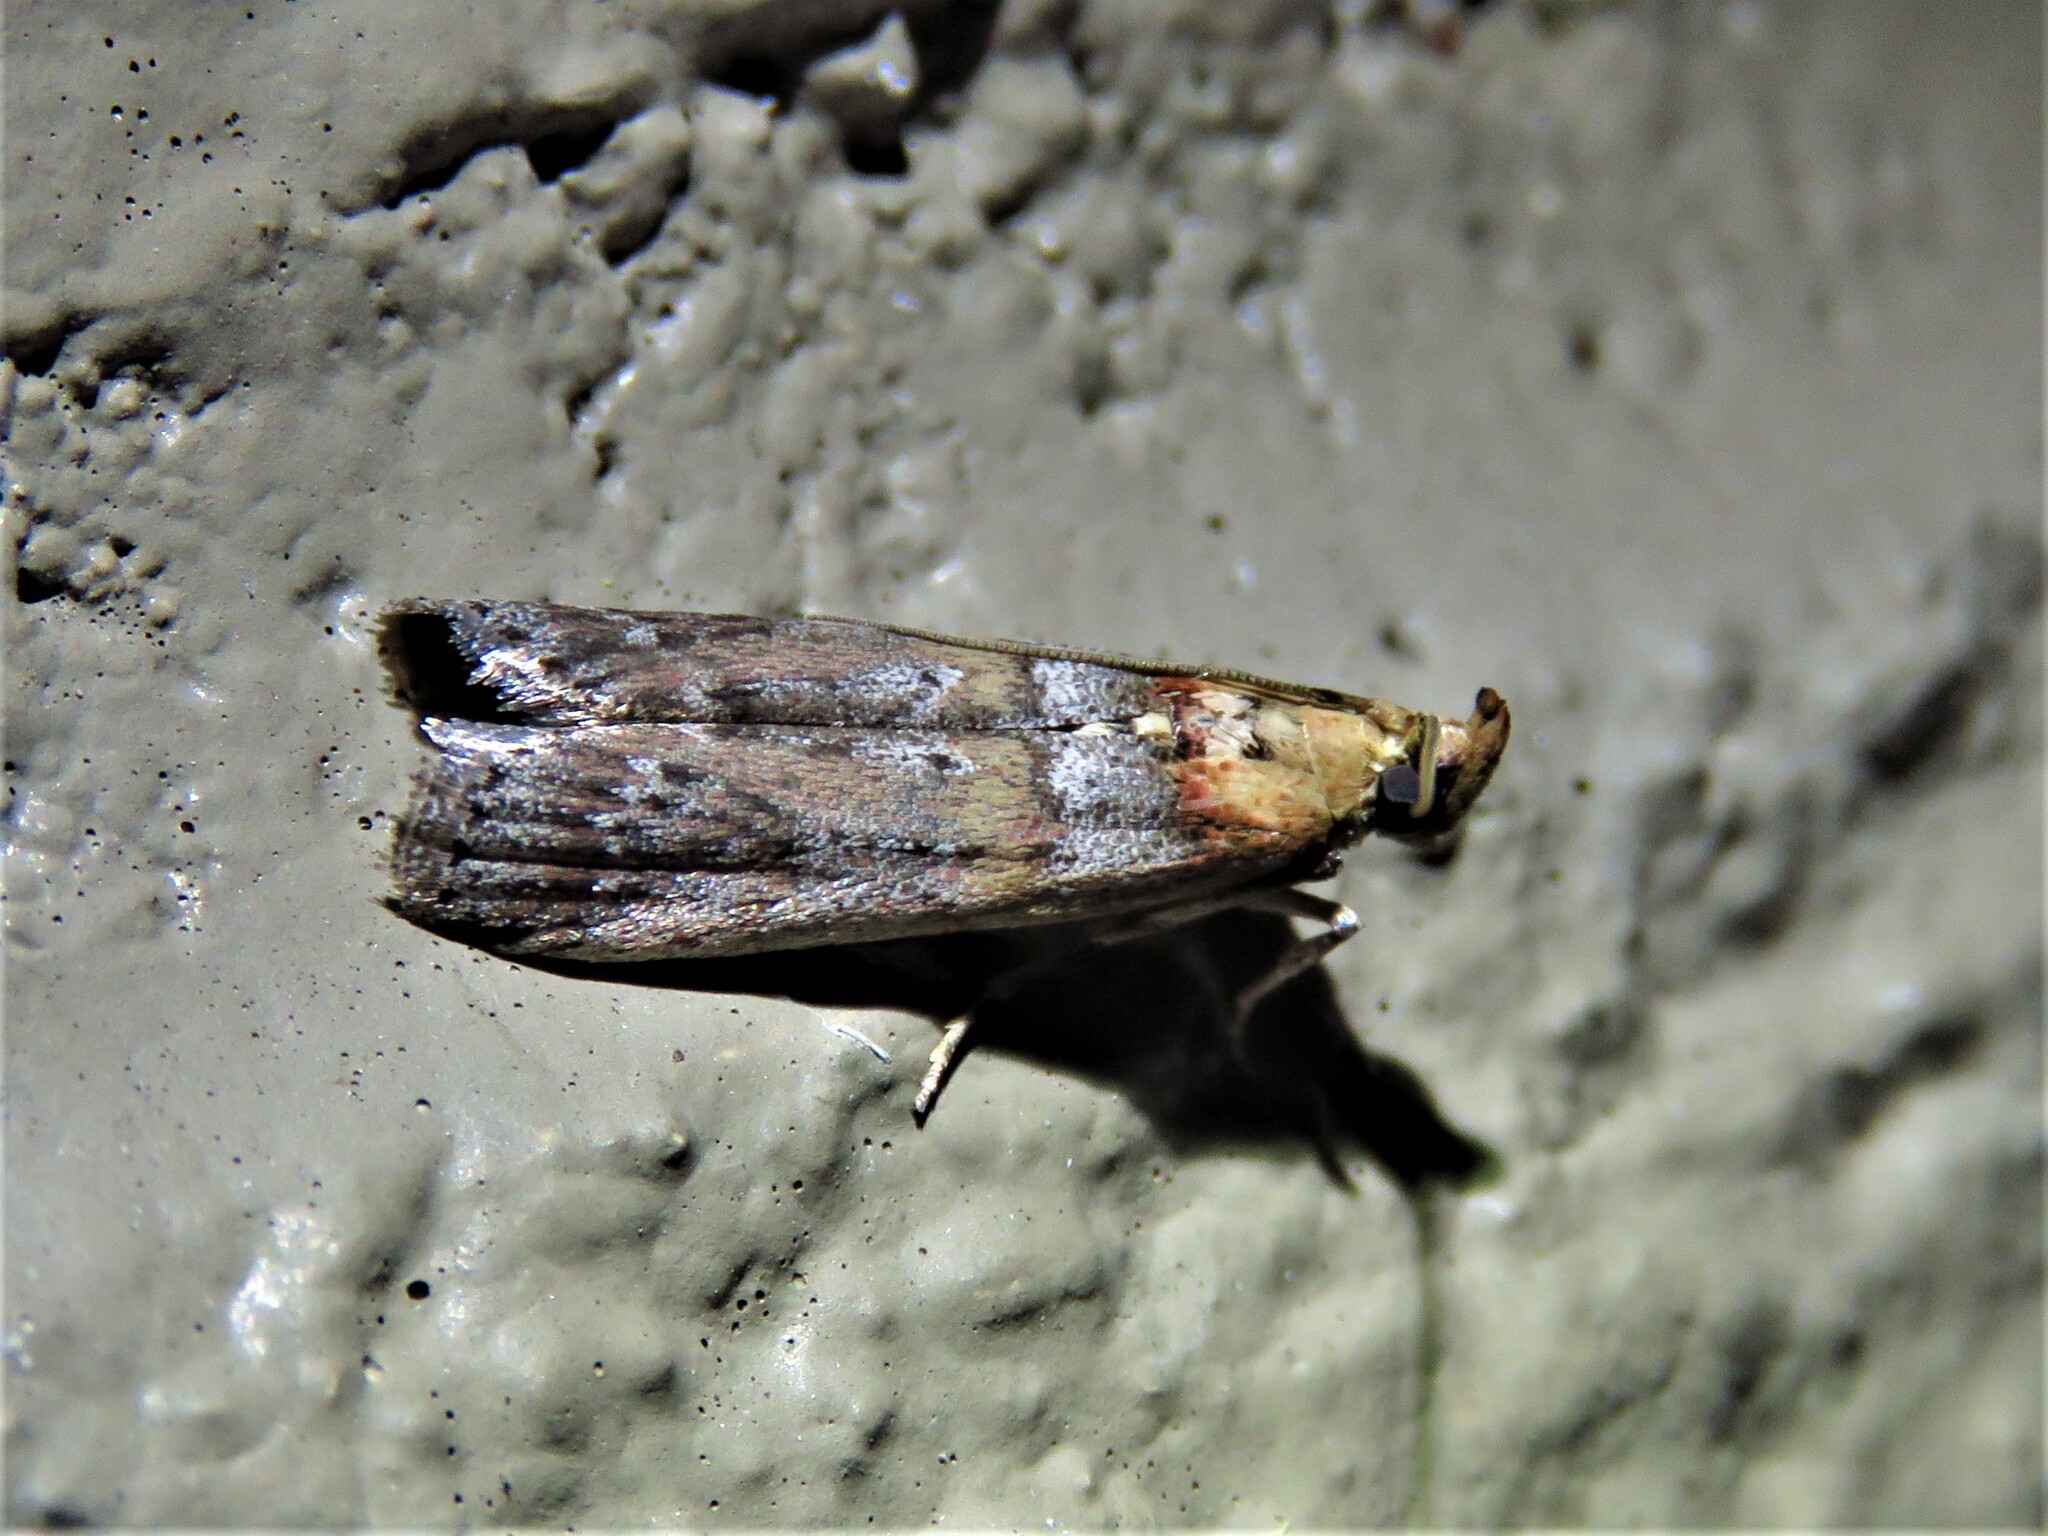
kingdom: Animalia
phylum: Arthropoda
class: Insecta
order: Lepidoptera
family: Pyralidae
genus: Adelphia
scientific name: Adelphia petrella
